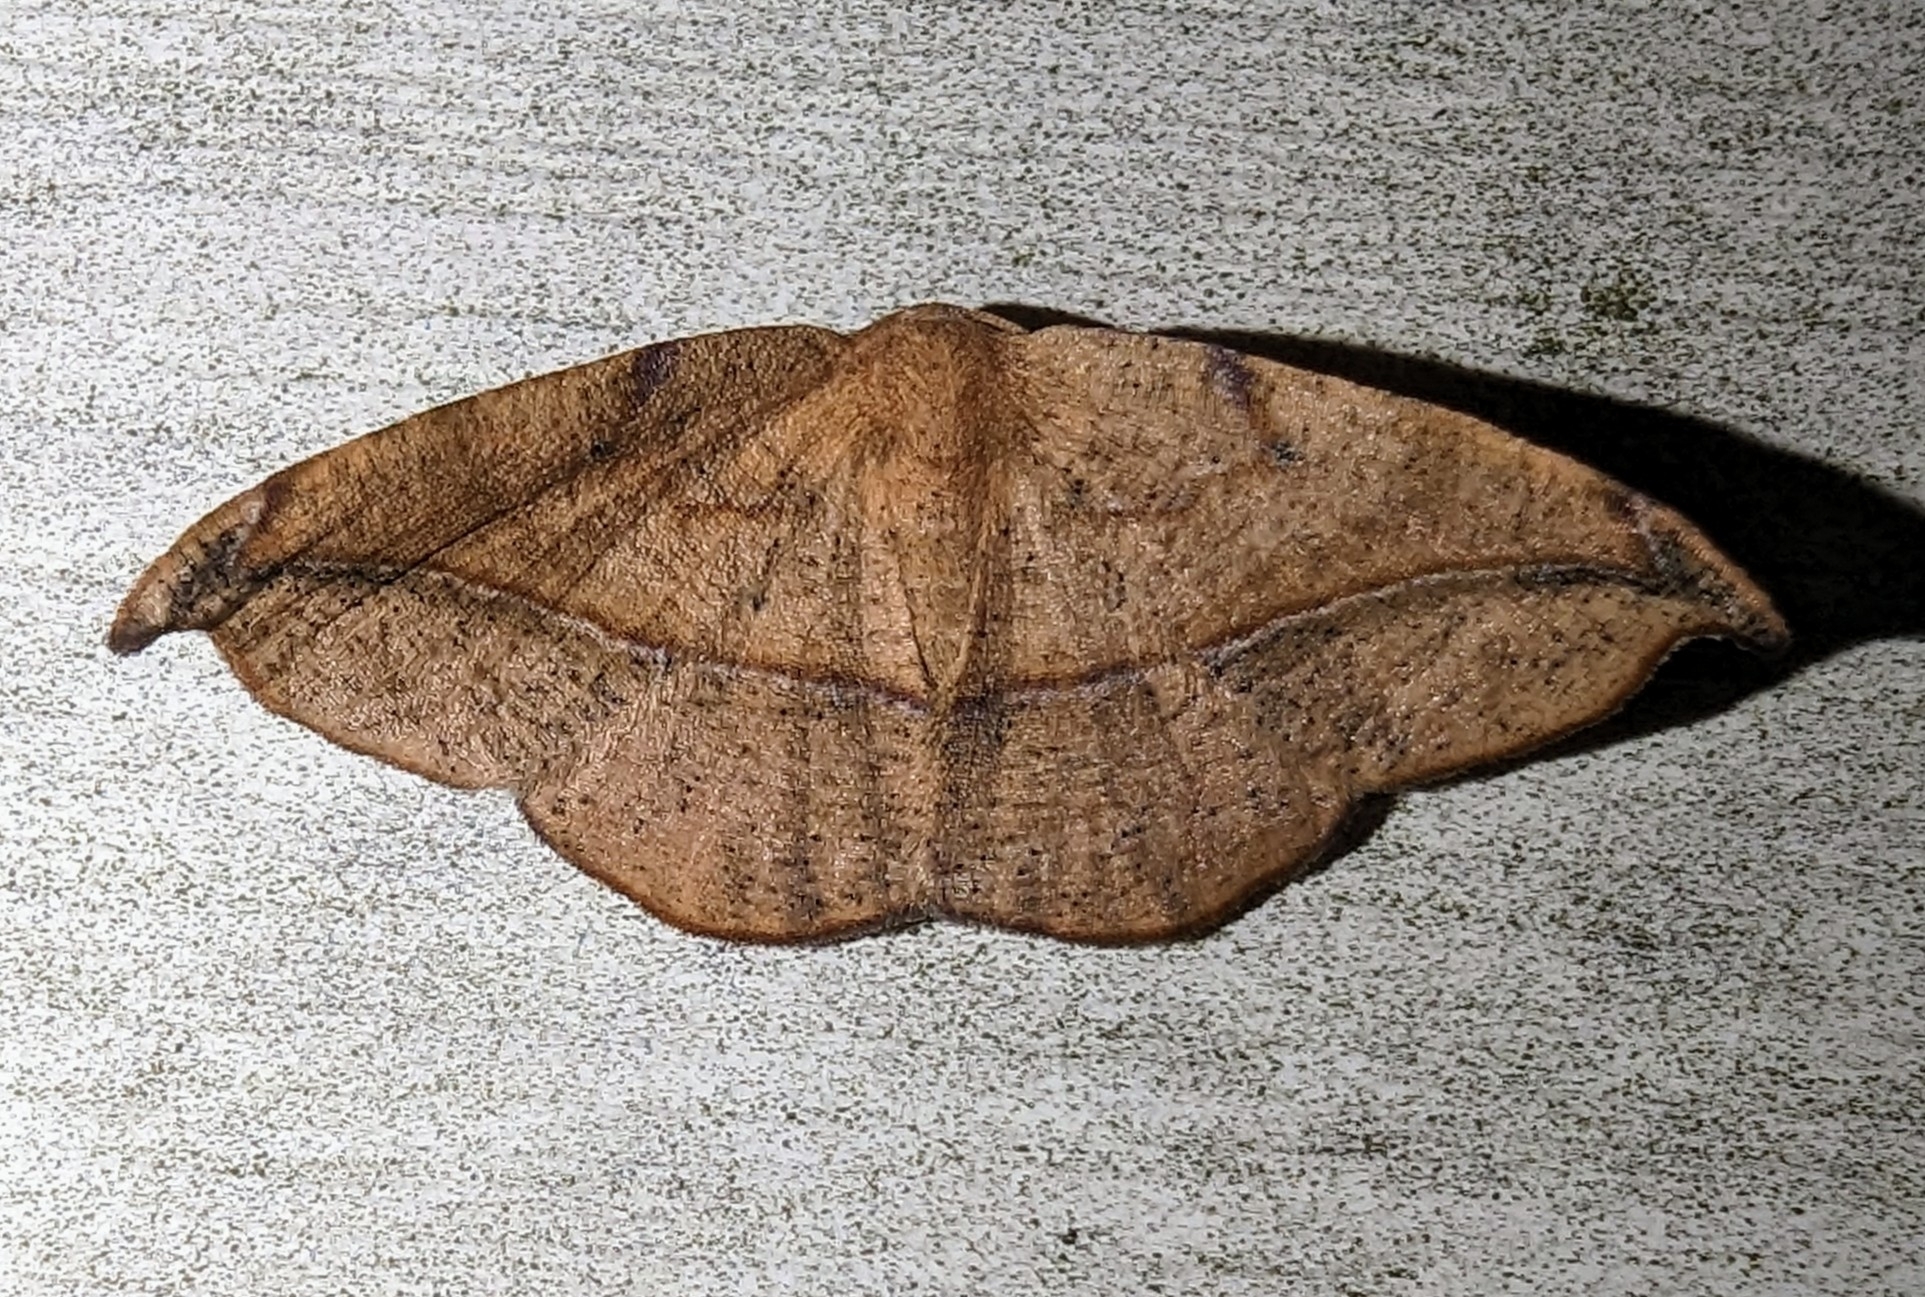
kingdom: Animalia
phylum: Arthropoda
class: Insecta
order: Lepidoptera
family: Geometridae
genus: Patalene
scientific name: Patalene olyzonaria
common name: Juniper geometer moth
